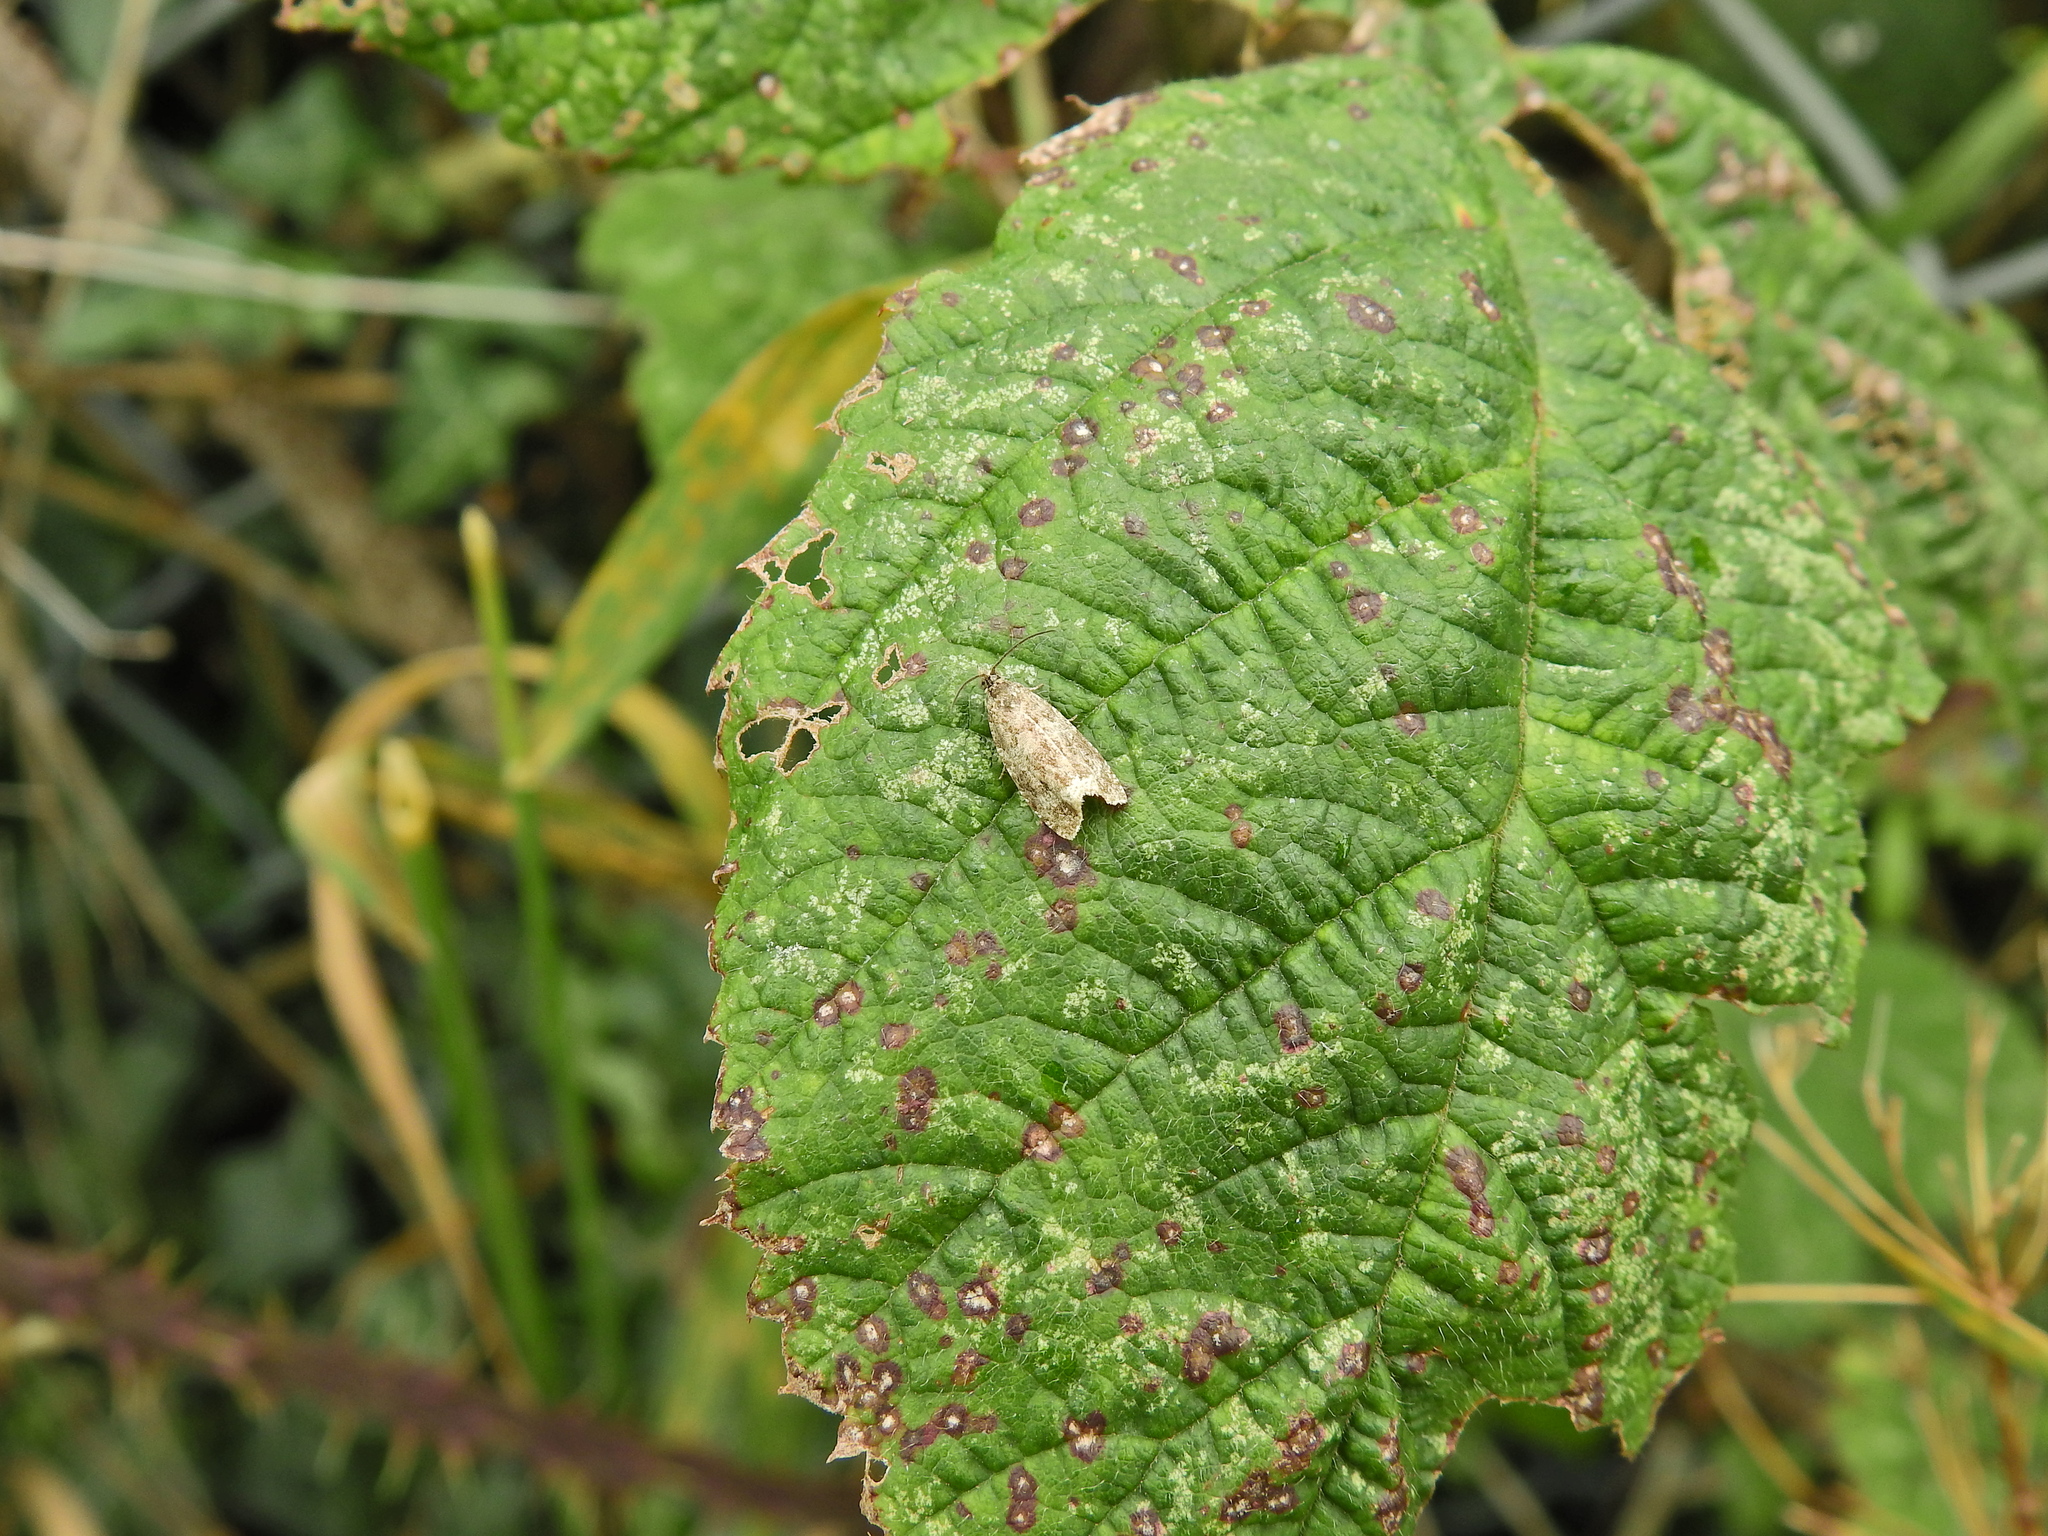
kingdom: Animalia
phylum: Arthropoda
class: Insecta
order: Lepidoptera
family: Tortricidae
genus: Syricoris
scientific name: Syricoris lacunana
